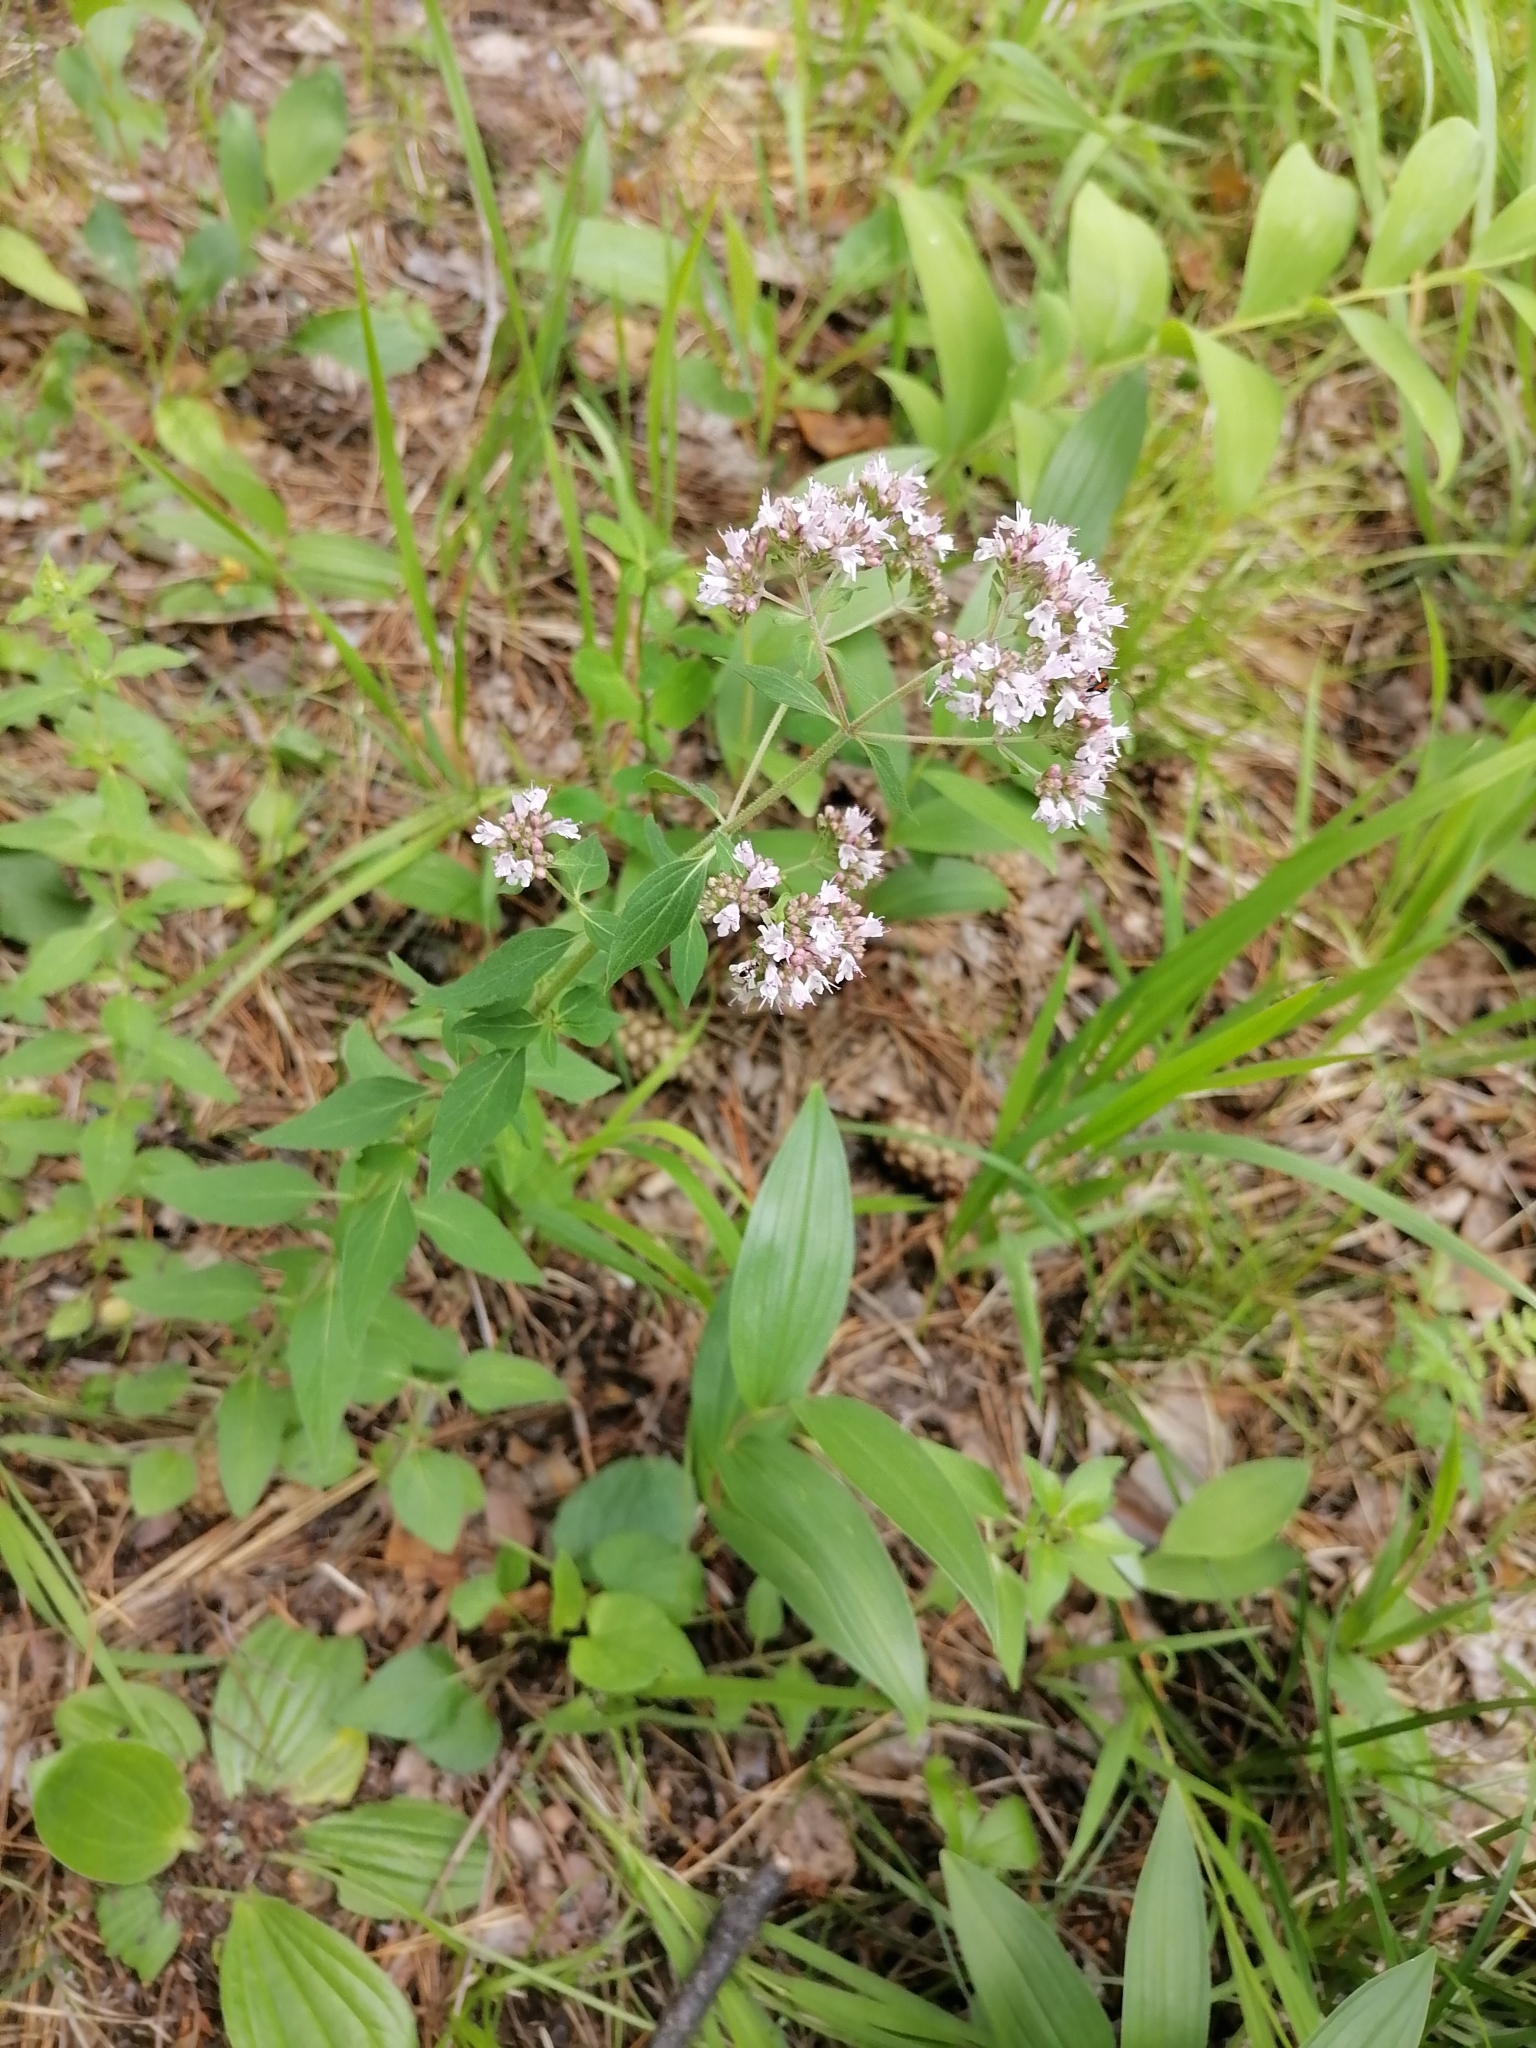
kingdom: Plantae
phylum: Tracheophyta
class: Magnoliopsida
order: Lamiales
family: Lamiaceae
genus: Origanum
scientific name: Origanum vulgare
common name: Wild marjoram
